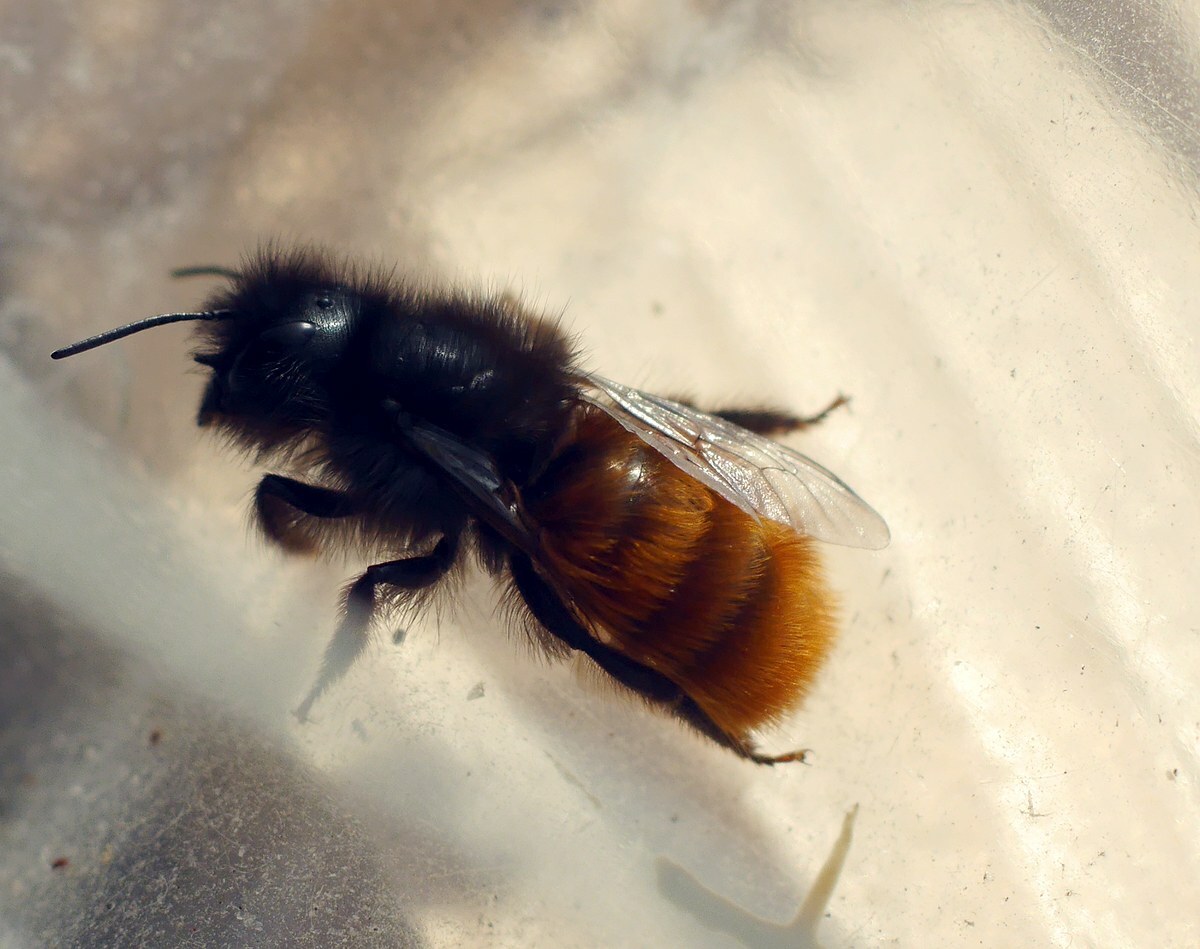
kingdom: Animalia
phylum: Arthropoda
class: Insecta
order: Hymenoptera
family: Megachilidae
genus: Osmia
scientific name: Osmia cornuta
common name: Mason bee
